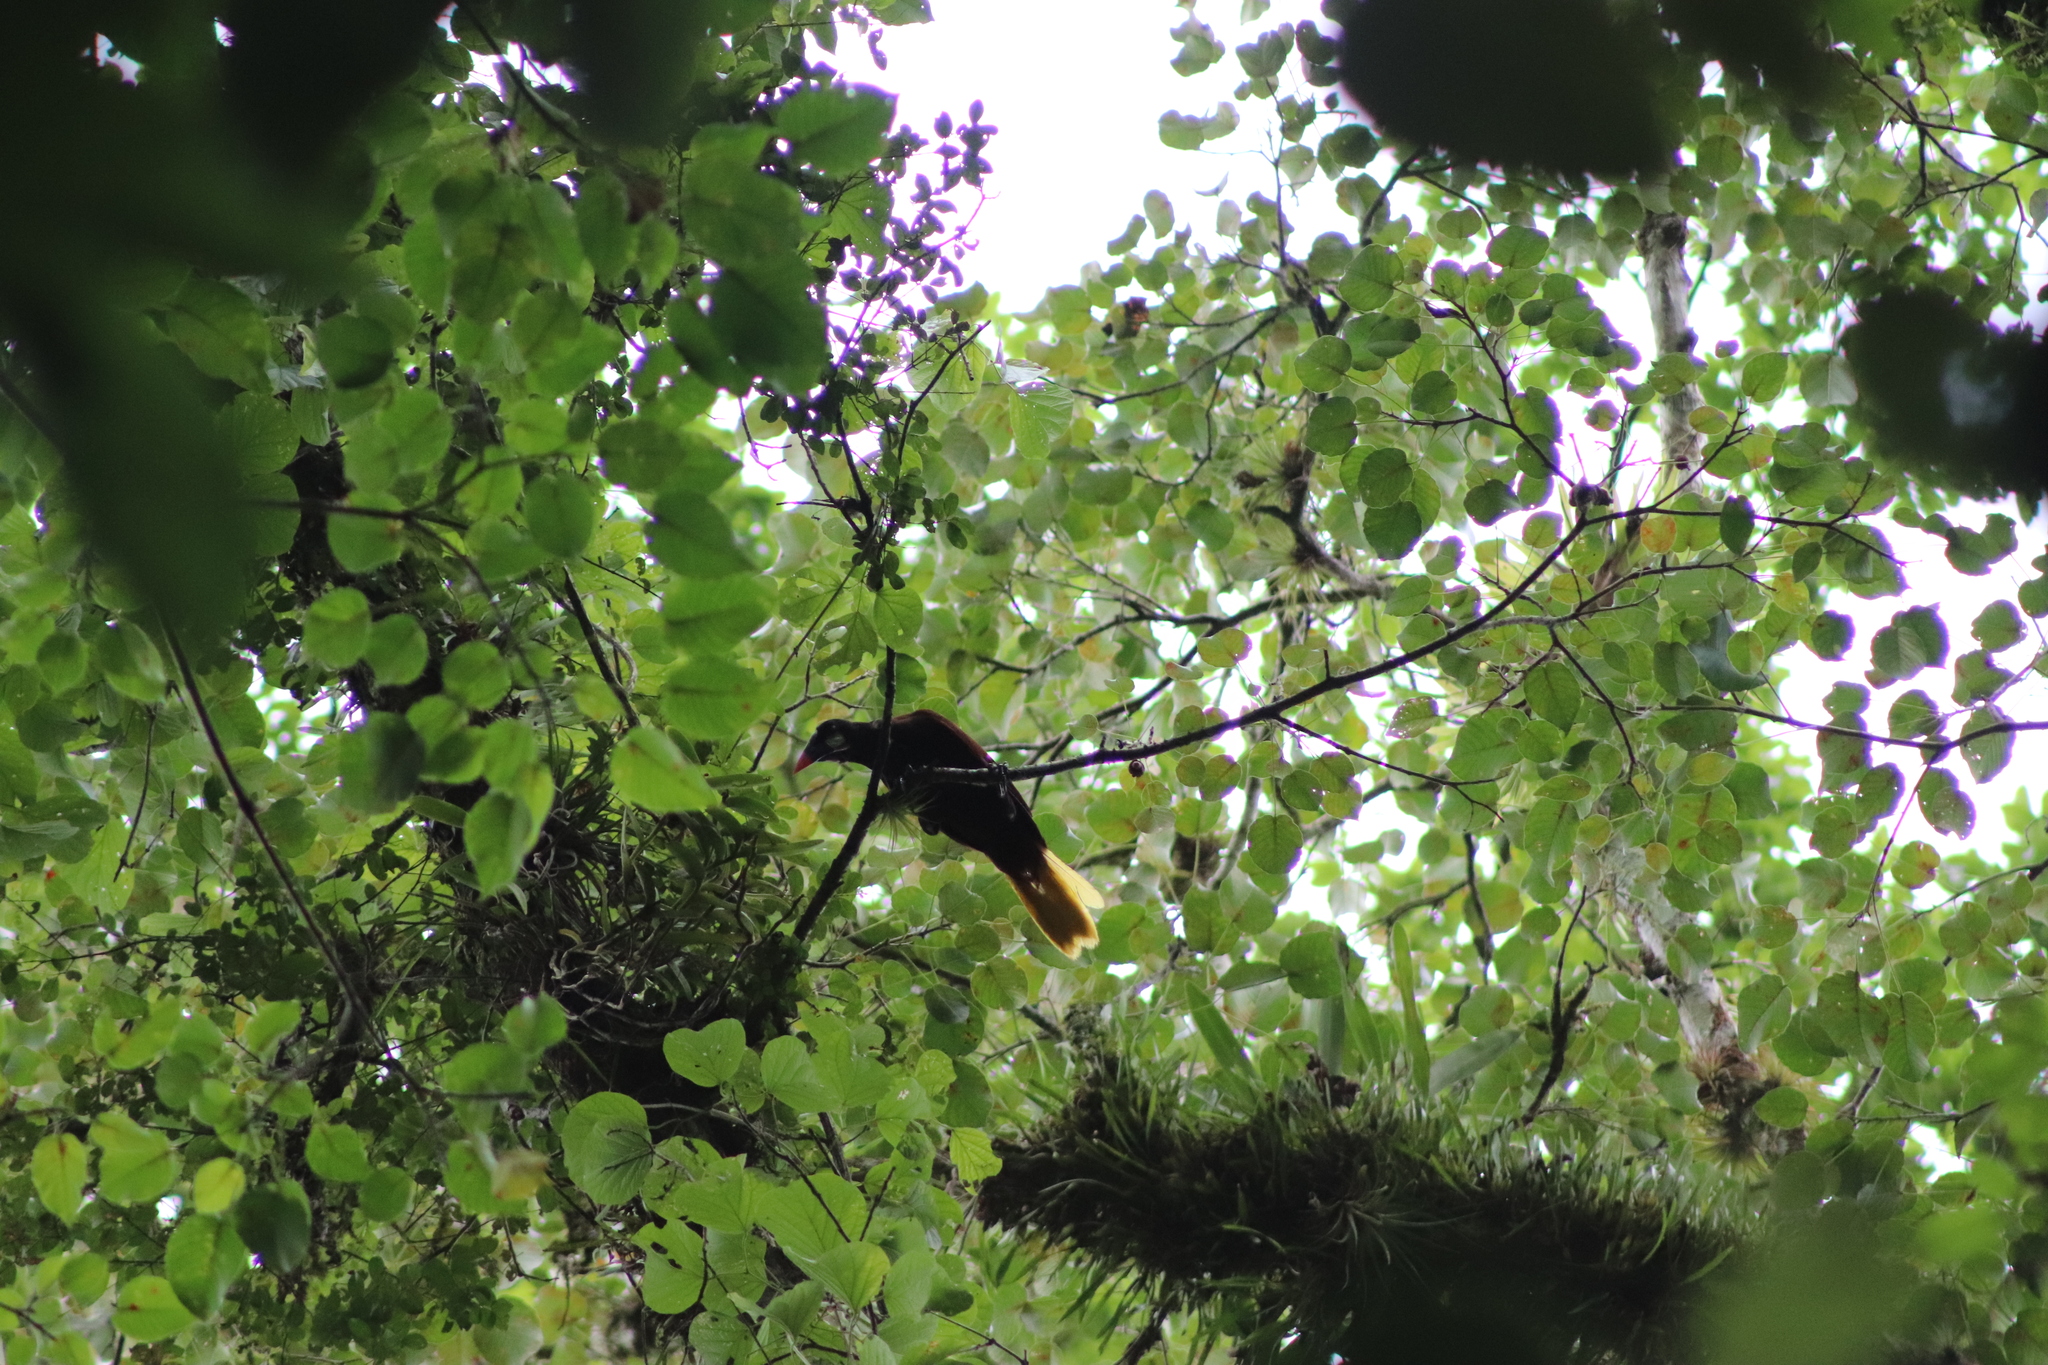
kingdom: Animalia
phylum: Chordata
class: Aves
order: Passeriformes
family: Icteridae
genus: Psarocolius
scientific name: Psarocolius montezuma
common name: Montezuma oropendola
